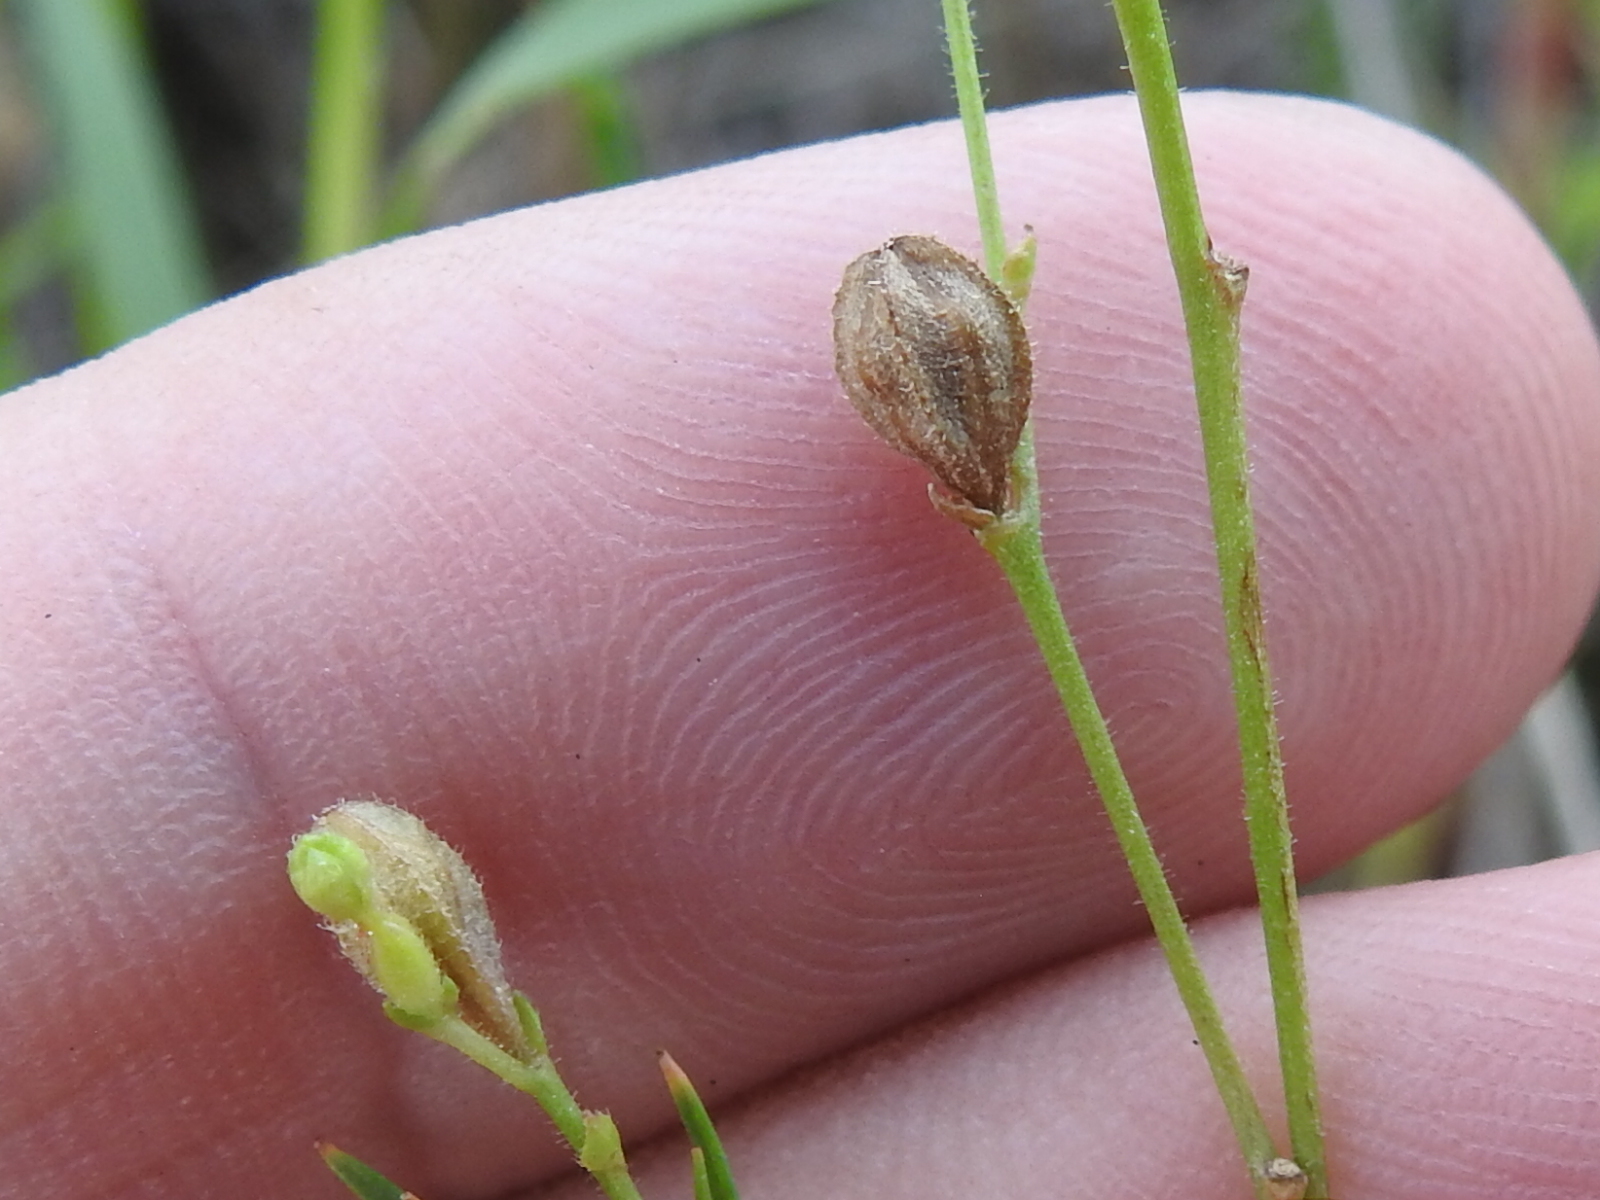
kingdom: Plantae
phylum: Tracheophyta
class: Magnoliopsida
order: Myrtales
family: Onagraceae
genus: Oenothera
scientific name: Oenothera linifolia
